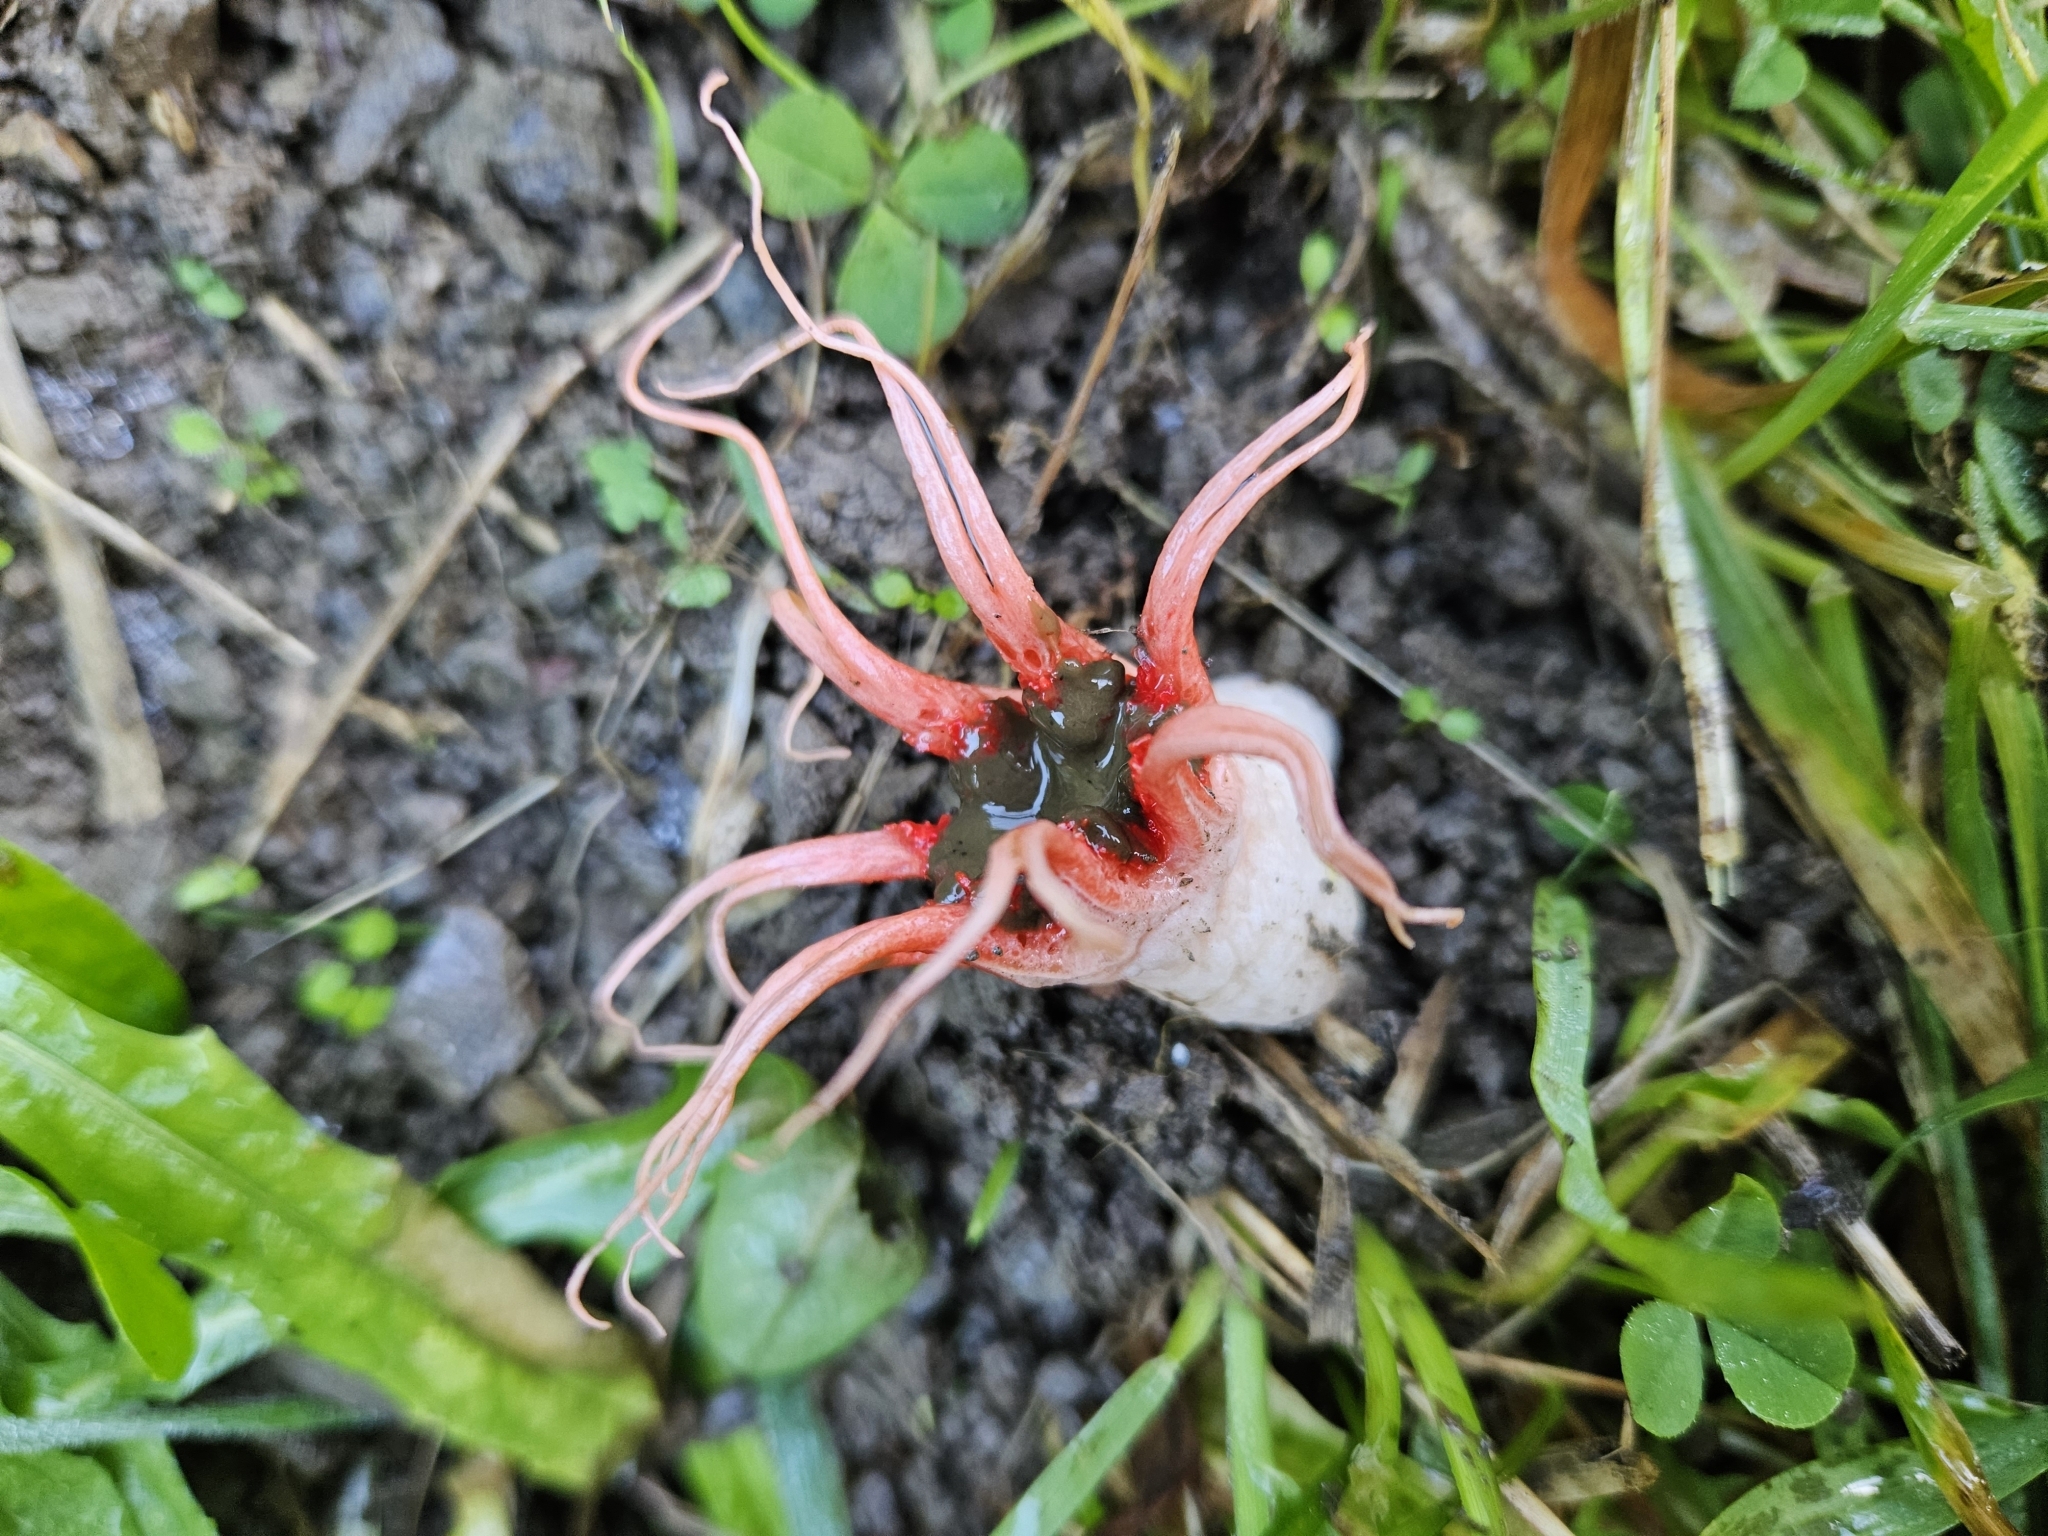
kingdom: Fungi
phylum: Basidiomycota
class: Agaricomycetes
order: Phallales
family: Phallaceae
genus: Aseroe
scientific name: Aseroe rubra
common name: Starfish fungus
